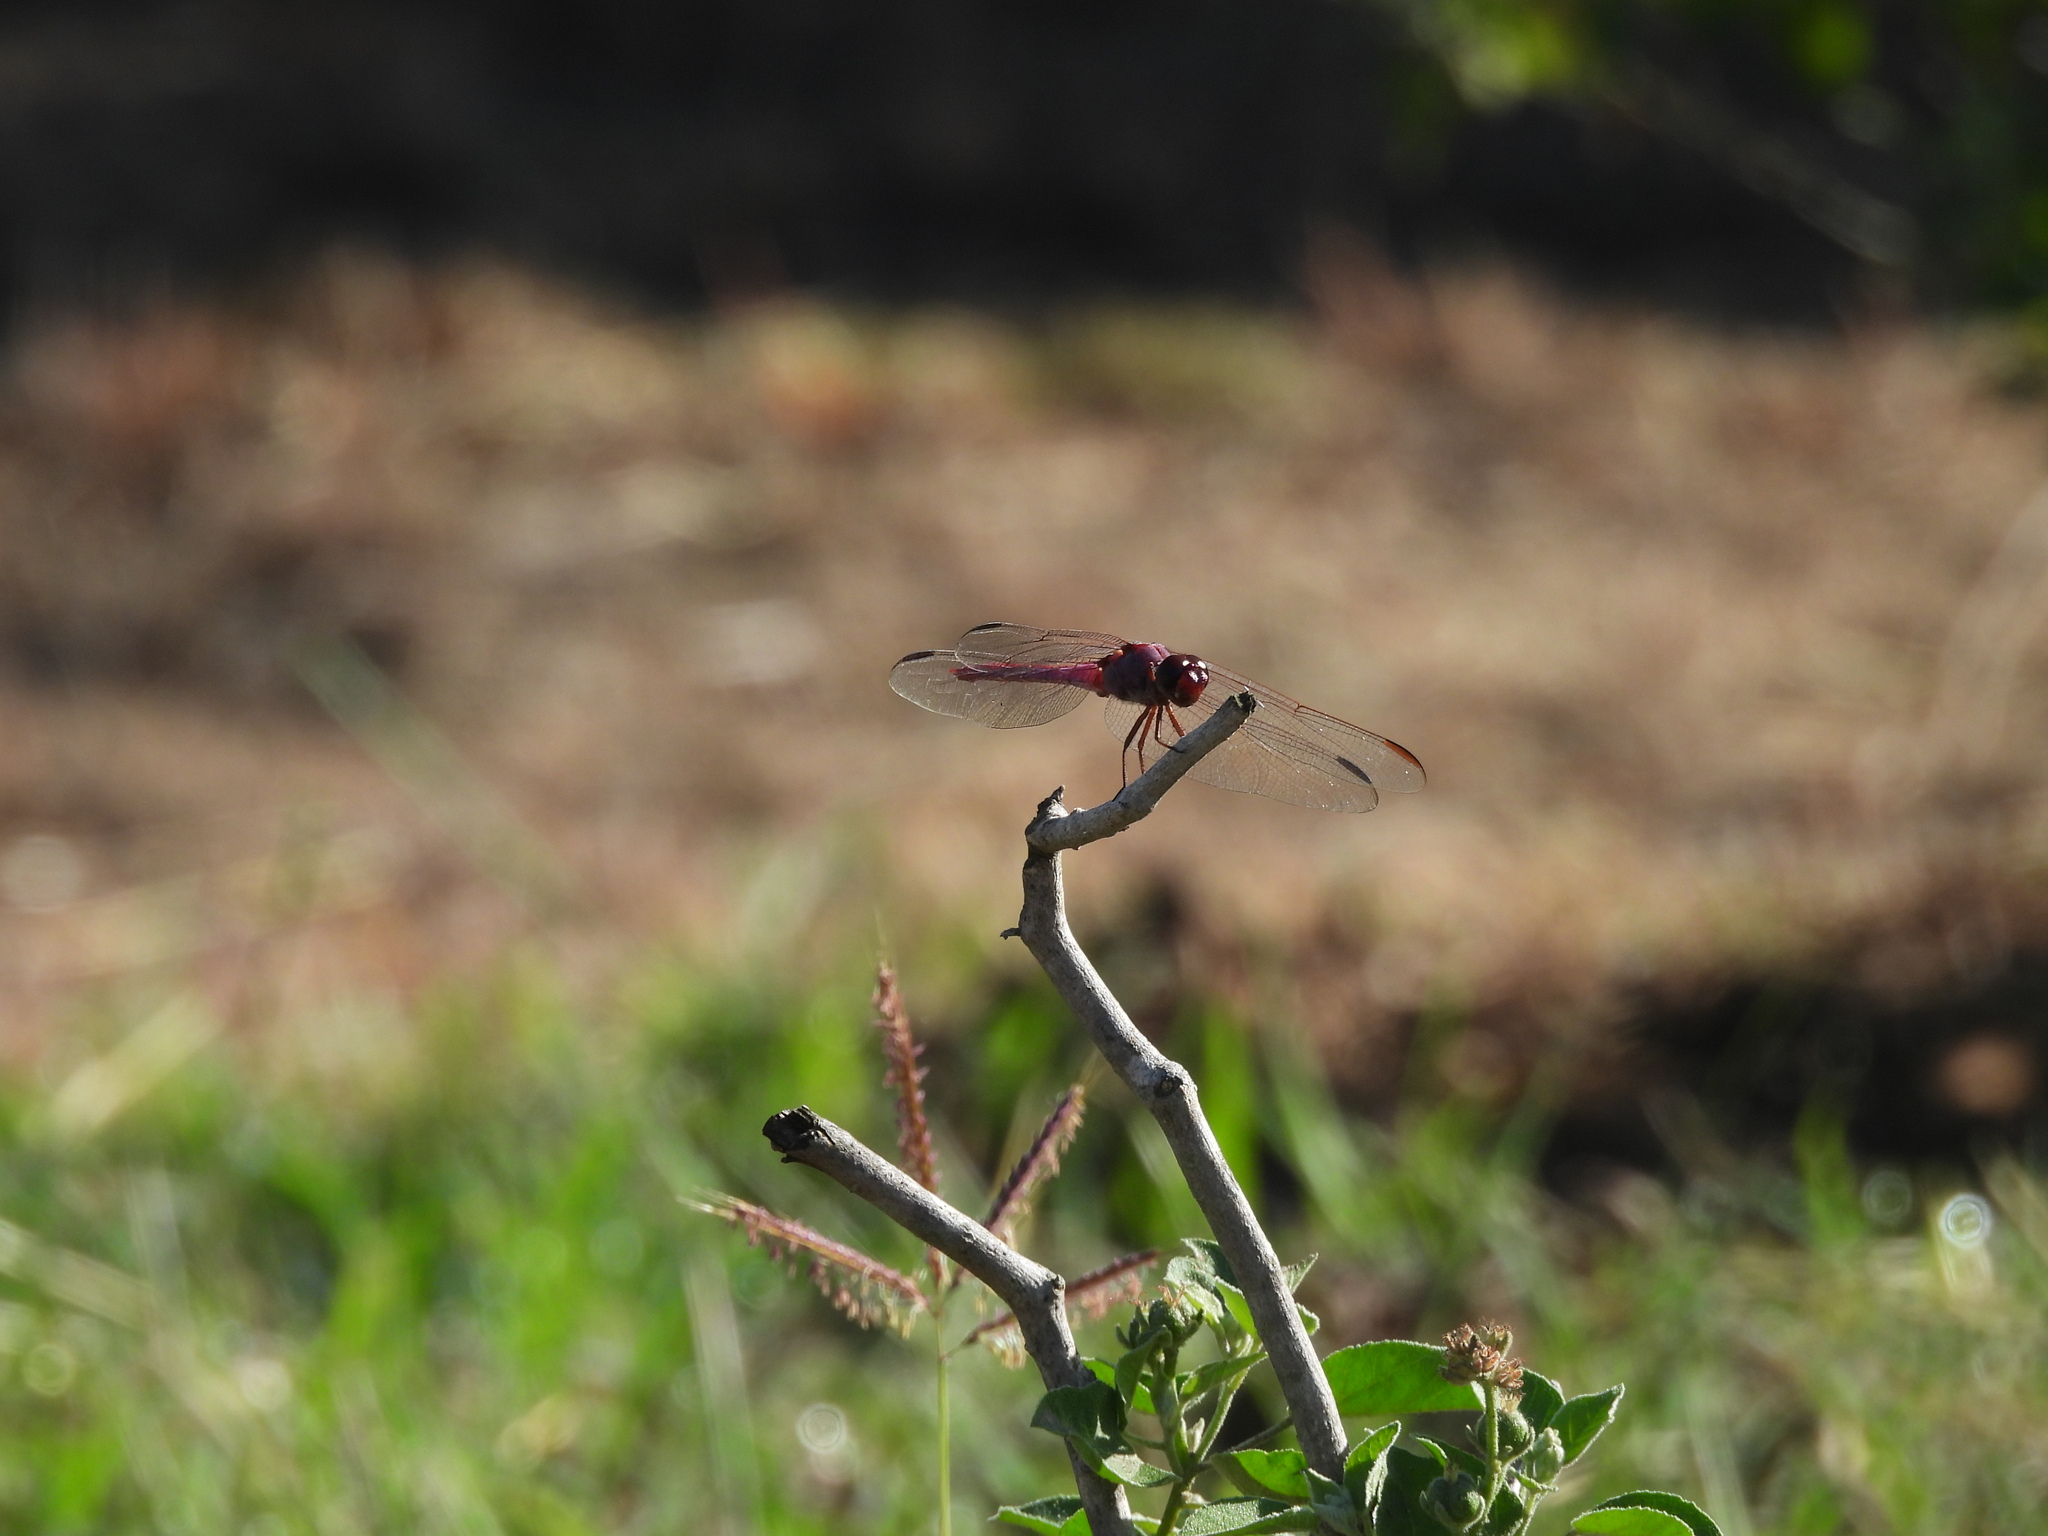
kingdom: Animalia
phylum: Arthropoda
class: Insecta
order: Odonata
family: Libellulidae
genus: Orthemis
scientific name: Orthemis ferruginea
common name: Roseate skimmer
